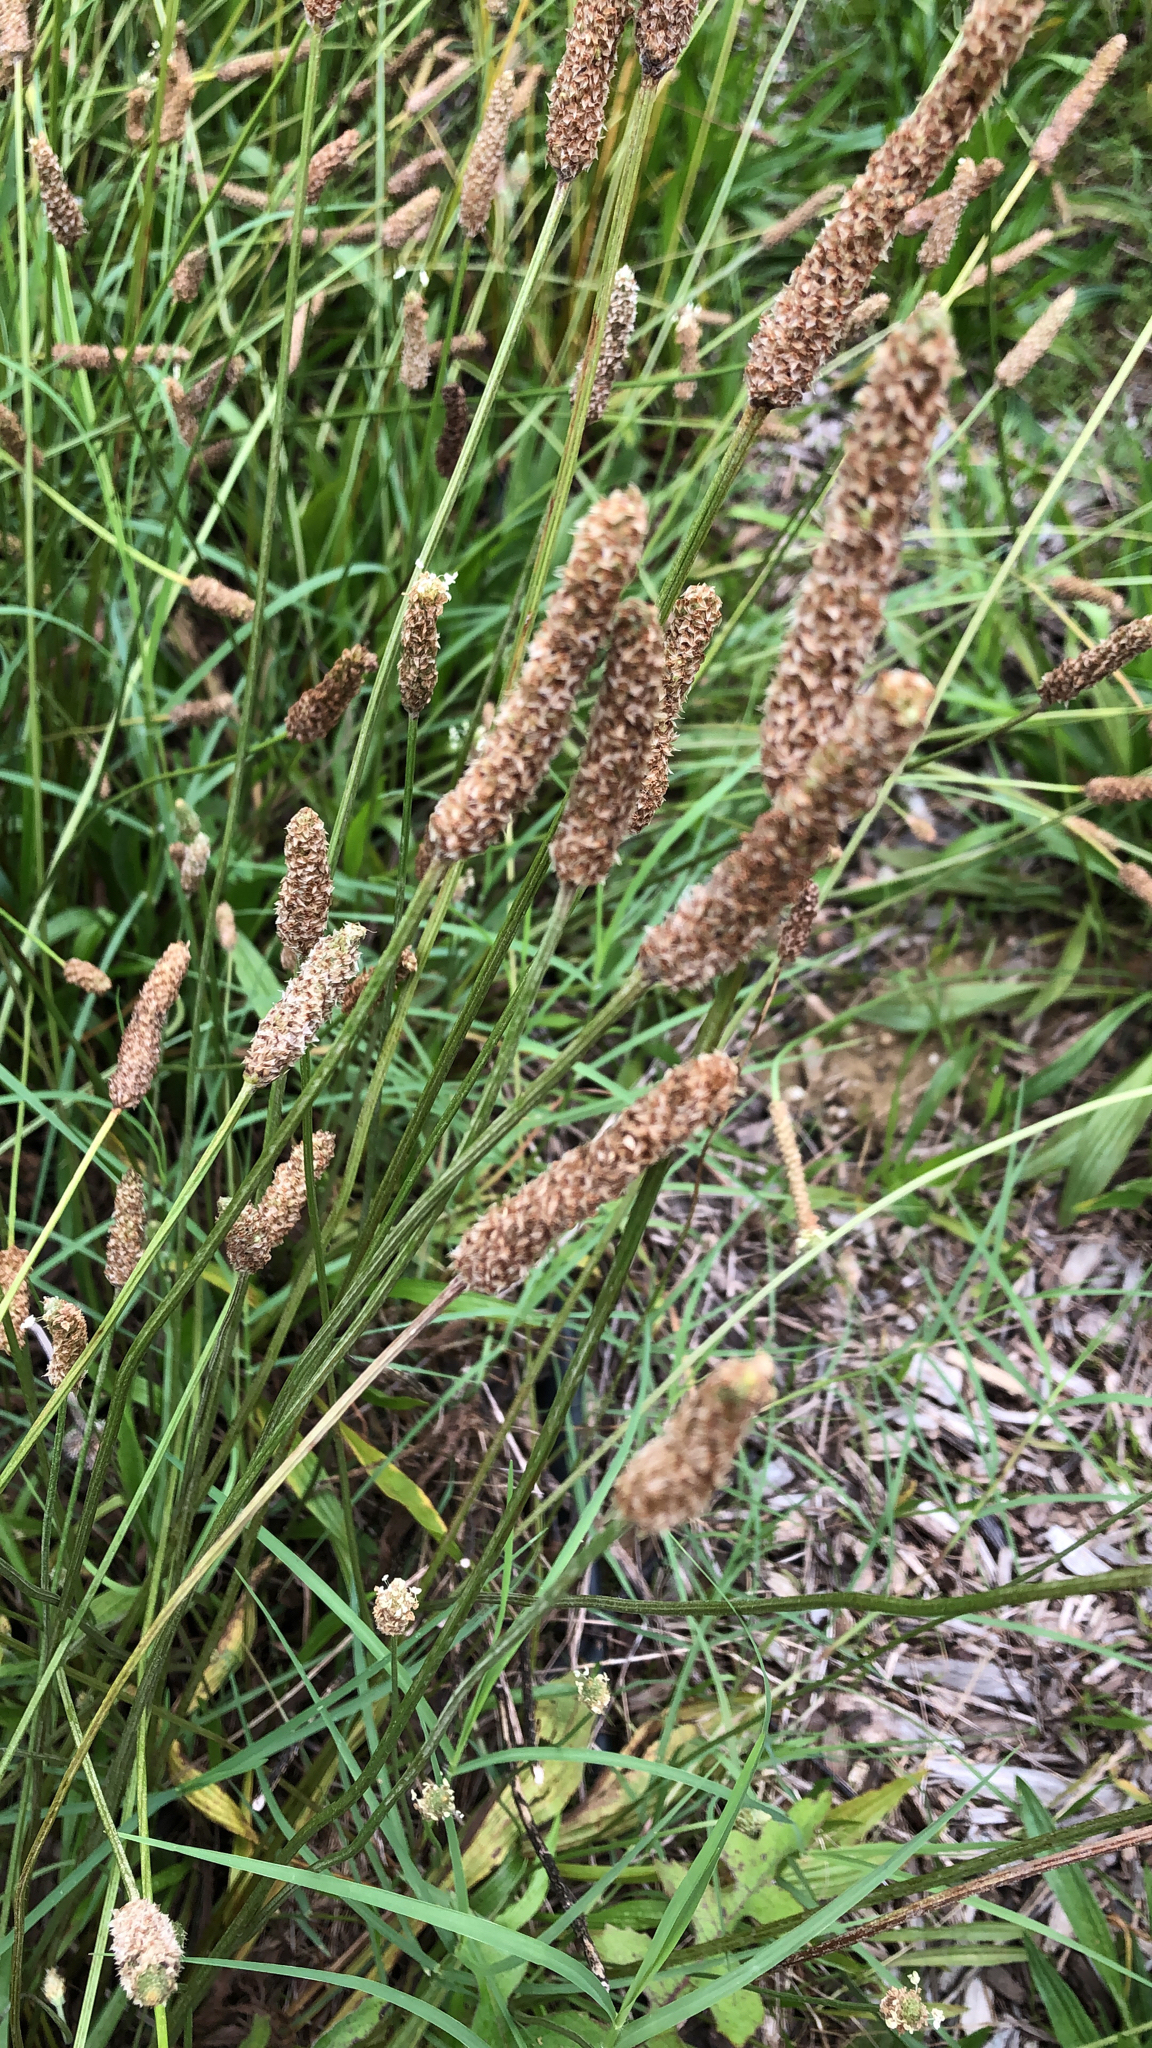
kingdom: Plantae
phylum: Tracheophyta
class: Magnoliopsida
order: Lamiales
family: Plantaginaceae
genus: Plantago
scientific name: Plantago lanceolata
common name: Ribwort plantain
